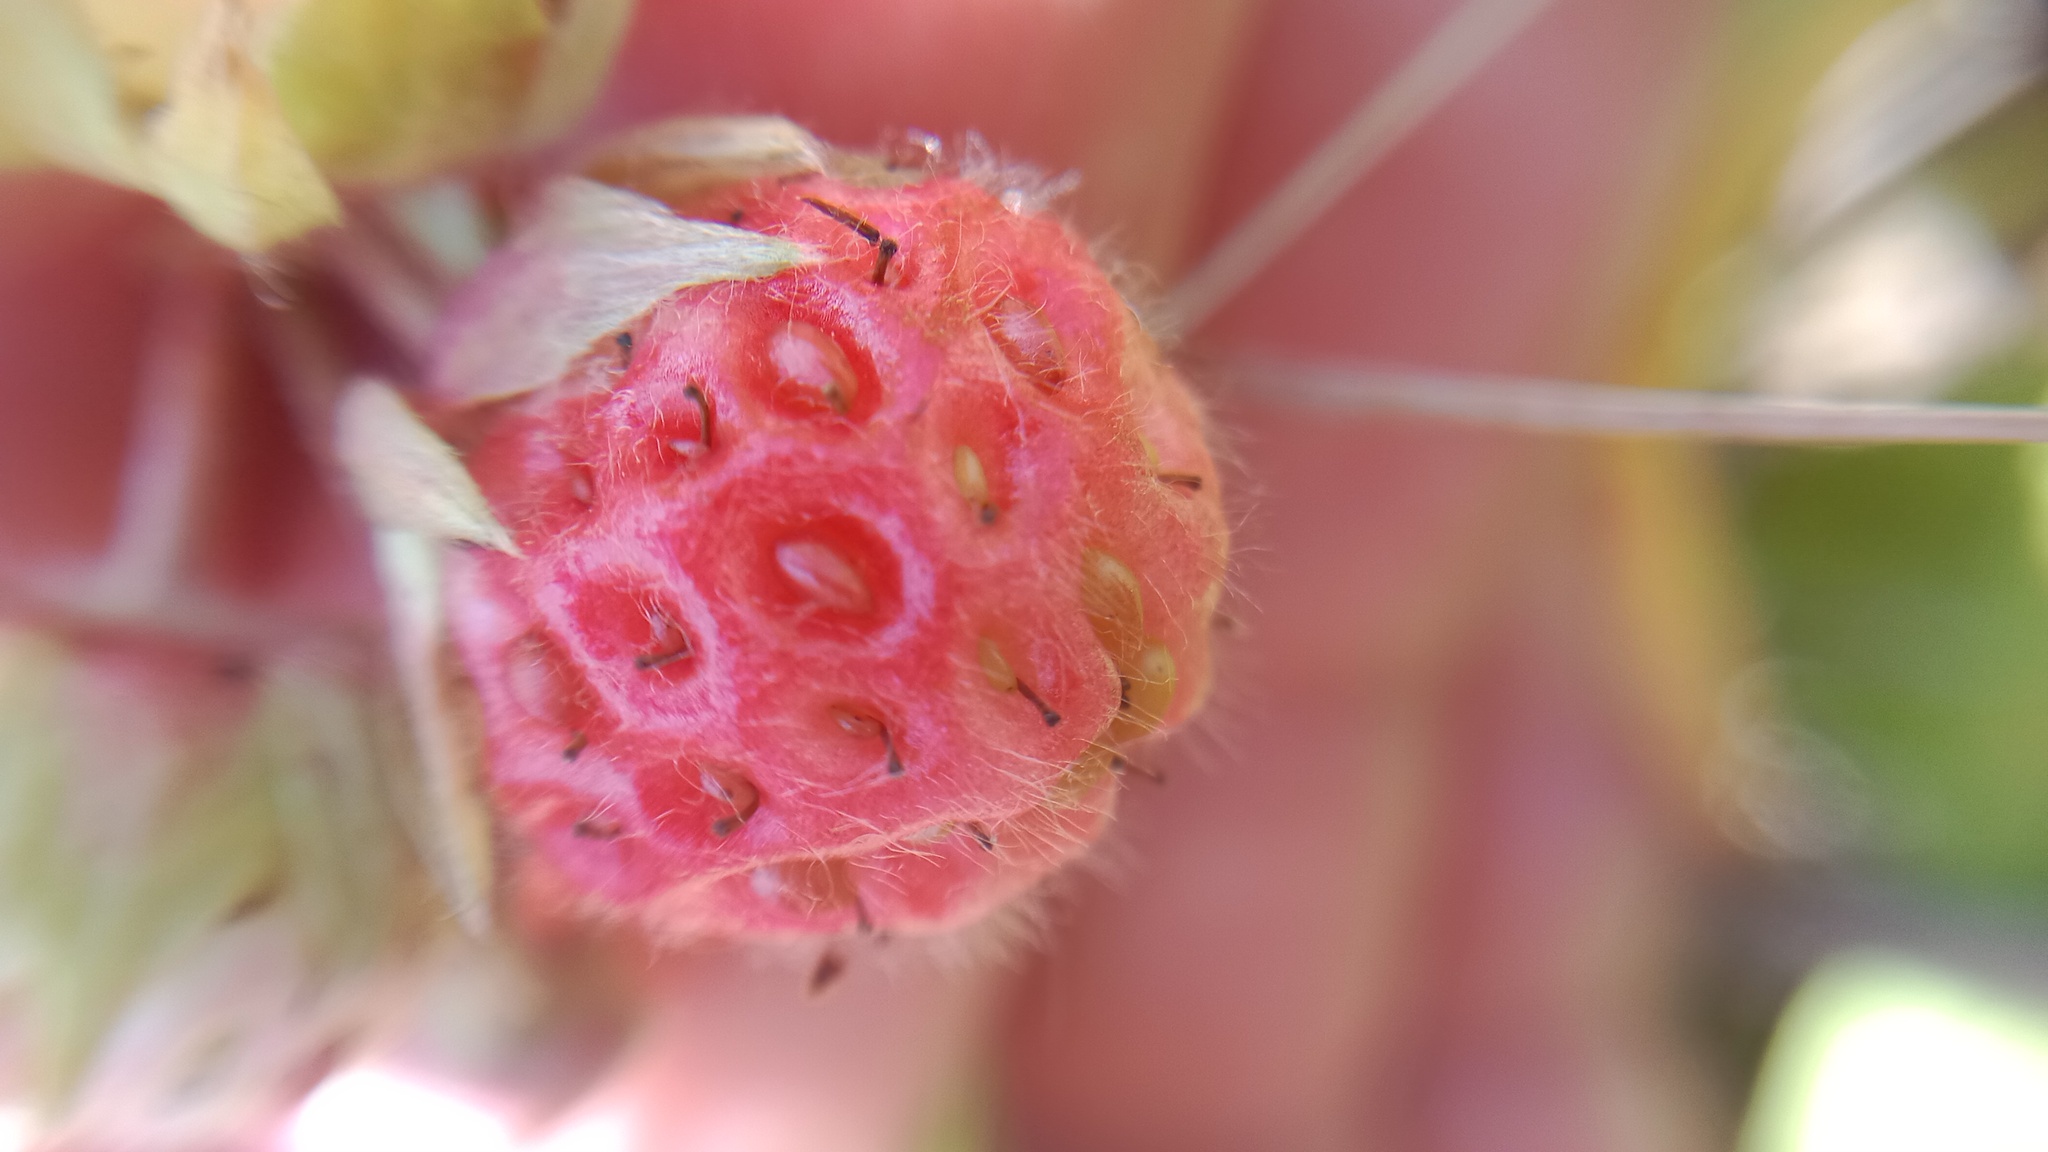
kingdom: Plantae
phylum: Tracheophyta
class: Magnoliopsida
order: Rosales
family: Rosaceae
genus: Fragaria
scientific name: Fragaria viridis
